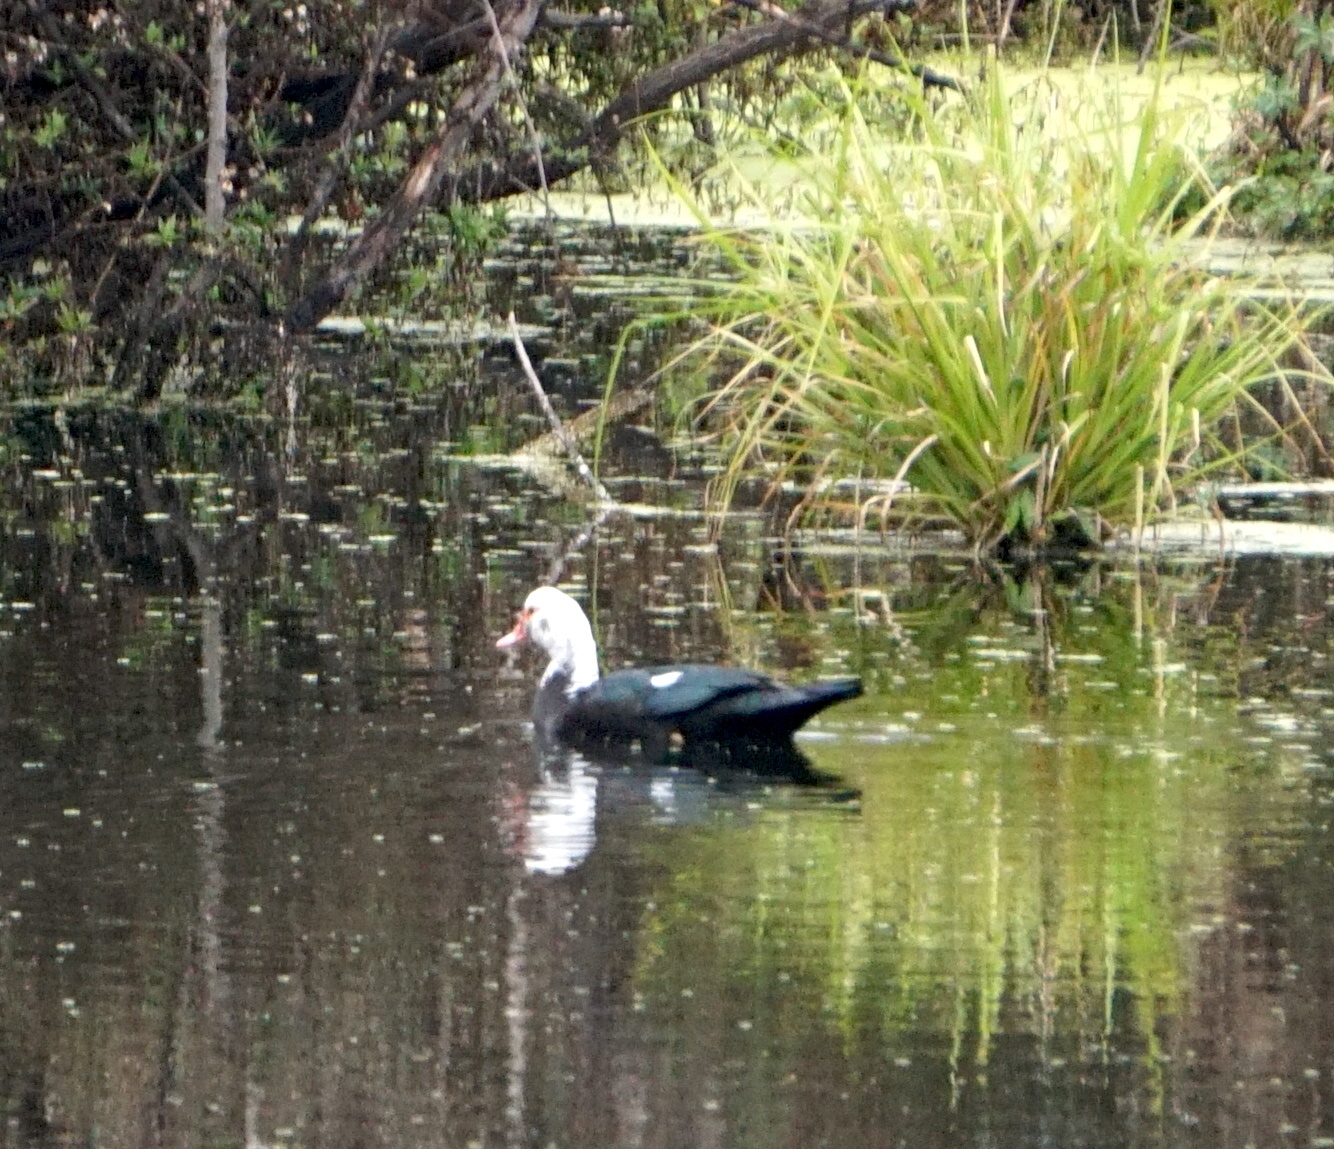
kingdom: Animalia
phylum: Chordata
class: Aves
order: Anseriformes
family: Anatidae
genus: Cairina
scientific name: Cairina moschata
